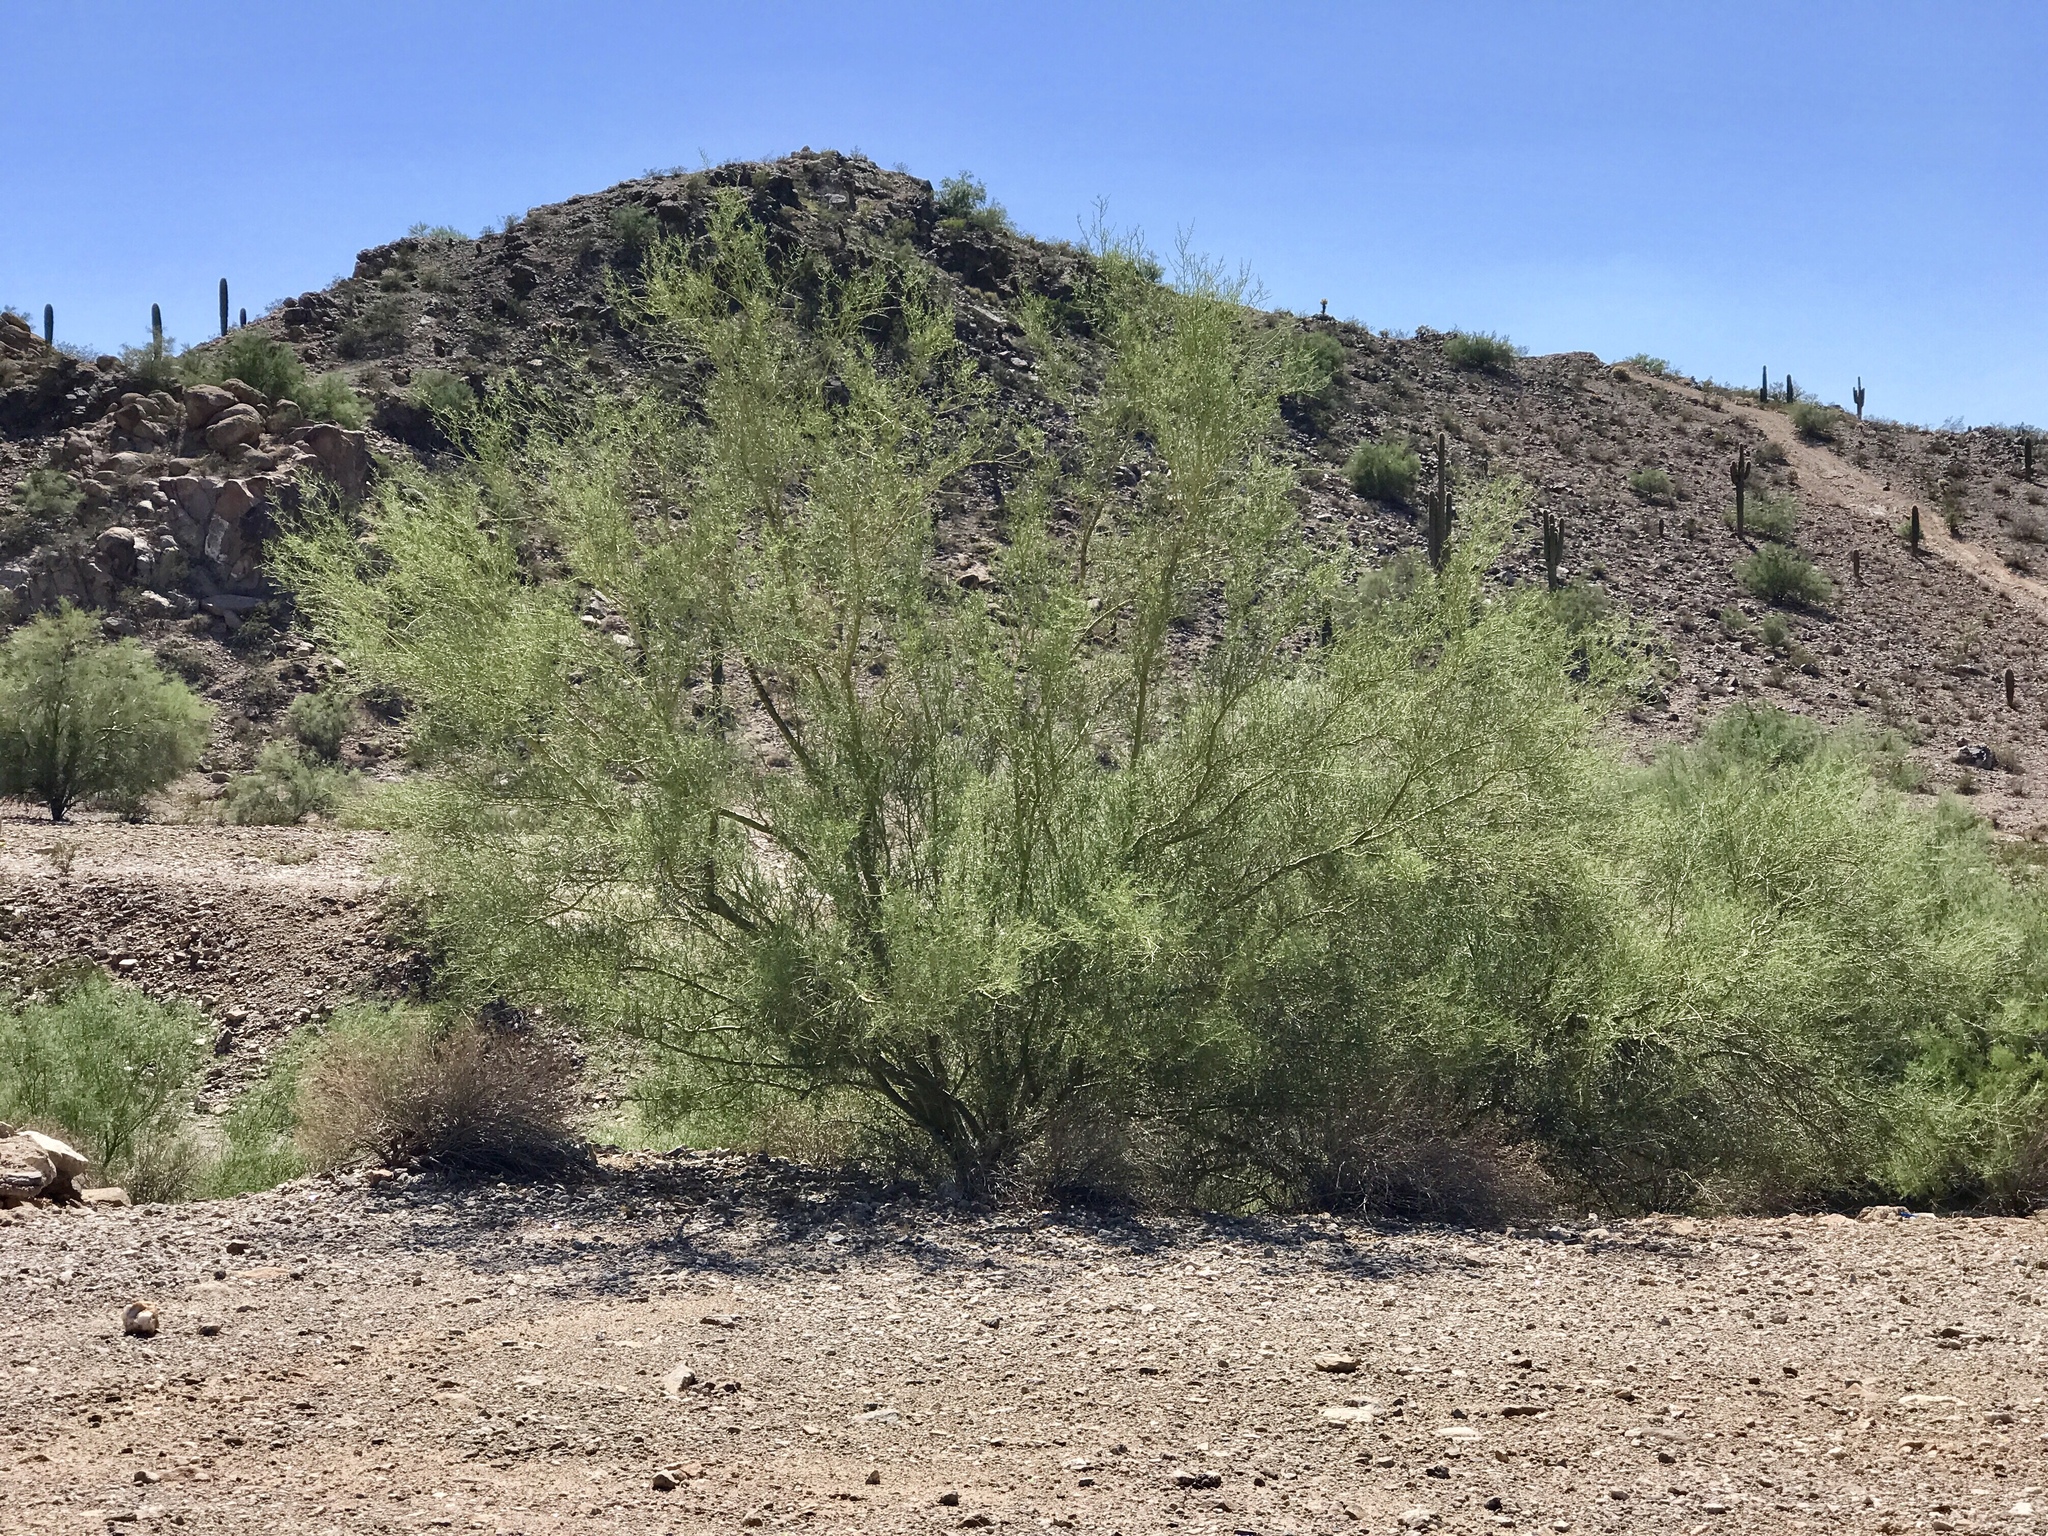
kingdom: Plantae
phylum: Tracheophyta
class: Magnoliopsida
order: Fabales
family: Fabaceae
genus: Parkinsonia
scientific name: Parkinsonia microphylla
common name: Yellow paloverde
